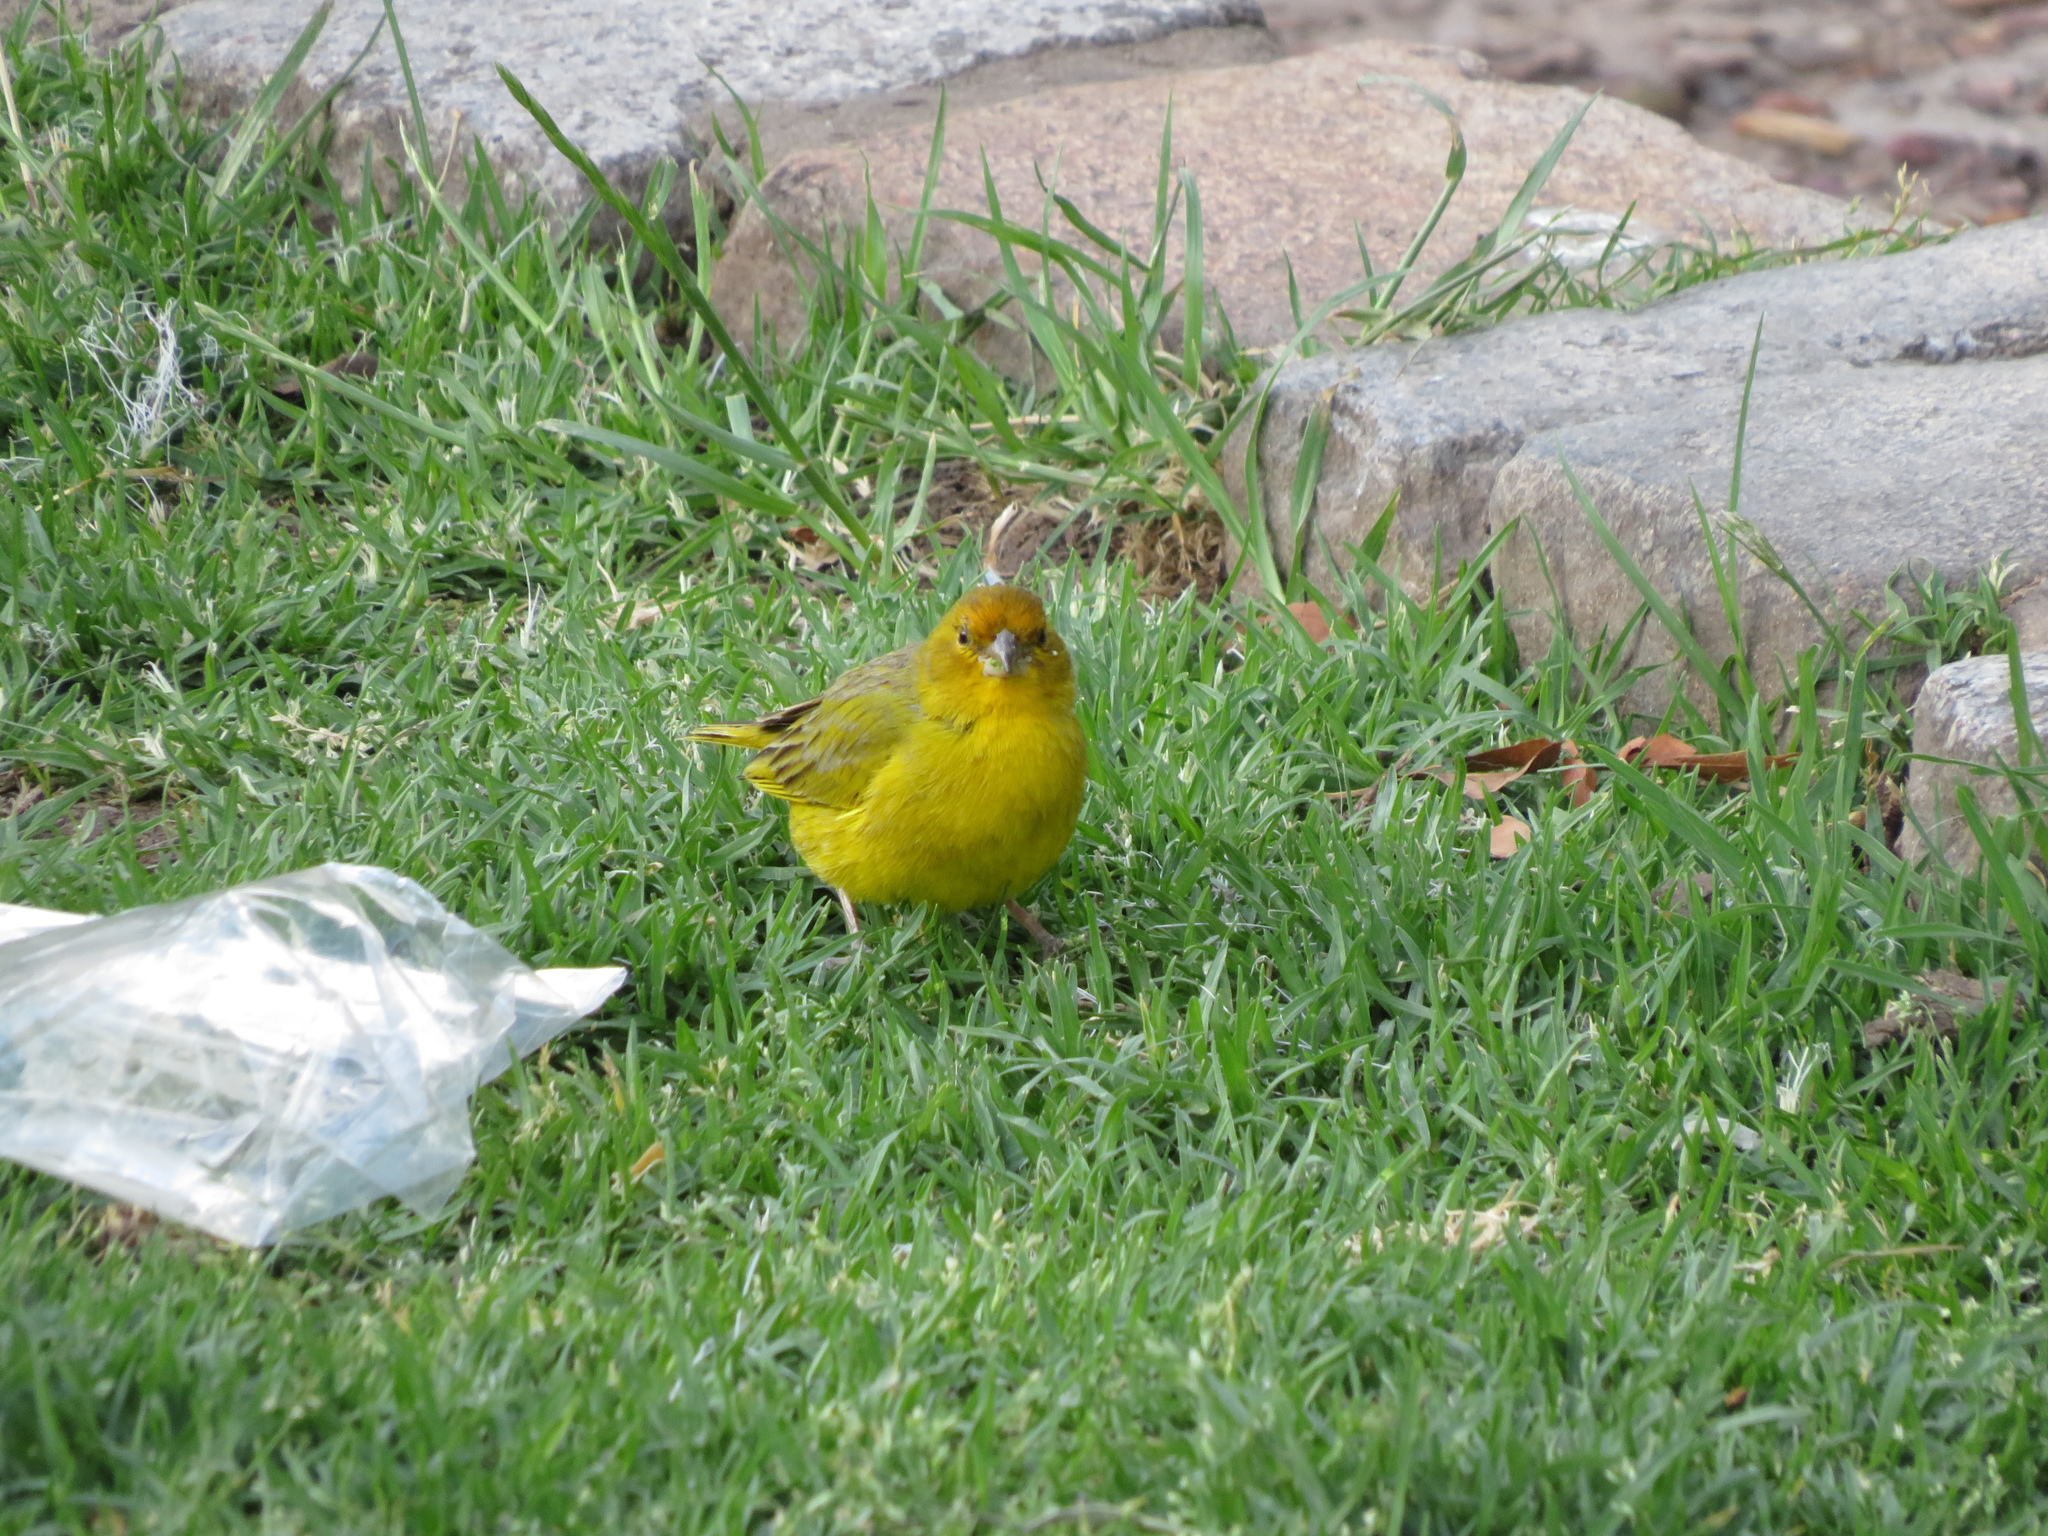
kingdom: Animalia
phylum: Chordata
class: Aves
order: Passeriformes
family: Thraupidae
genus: Sicalis
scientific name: Sicalis flaveola
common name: Saffron finch
